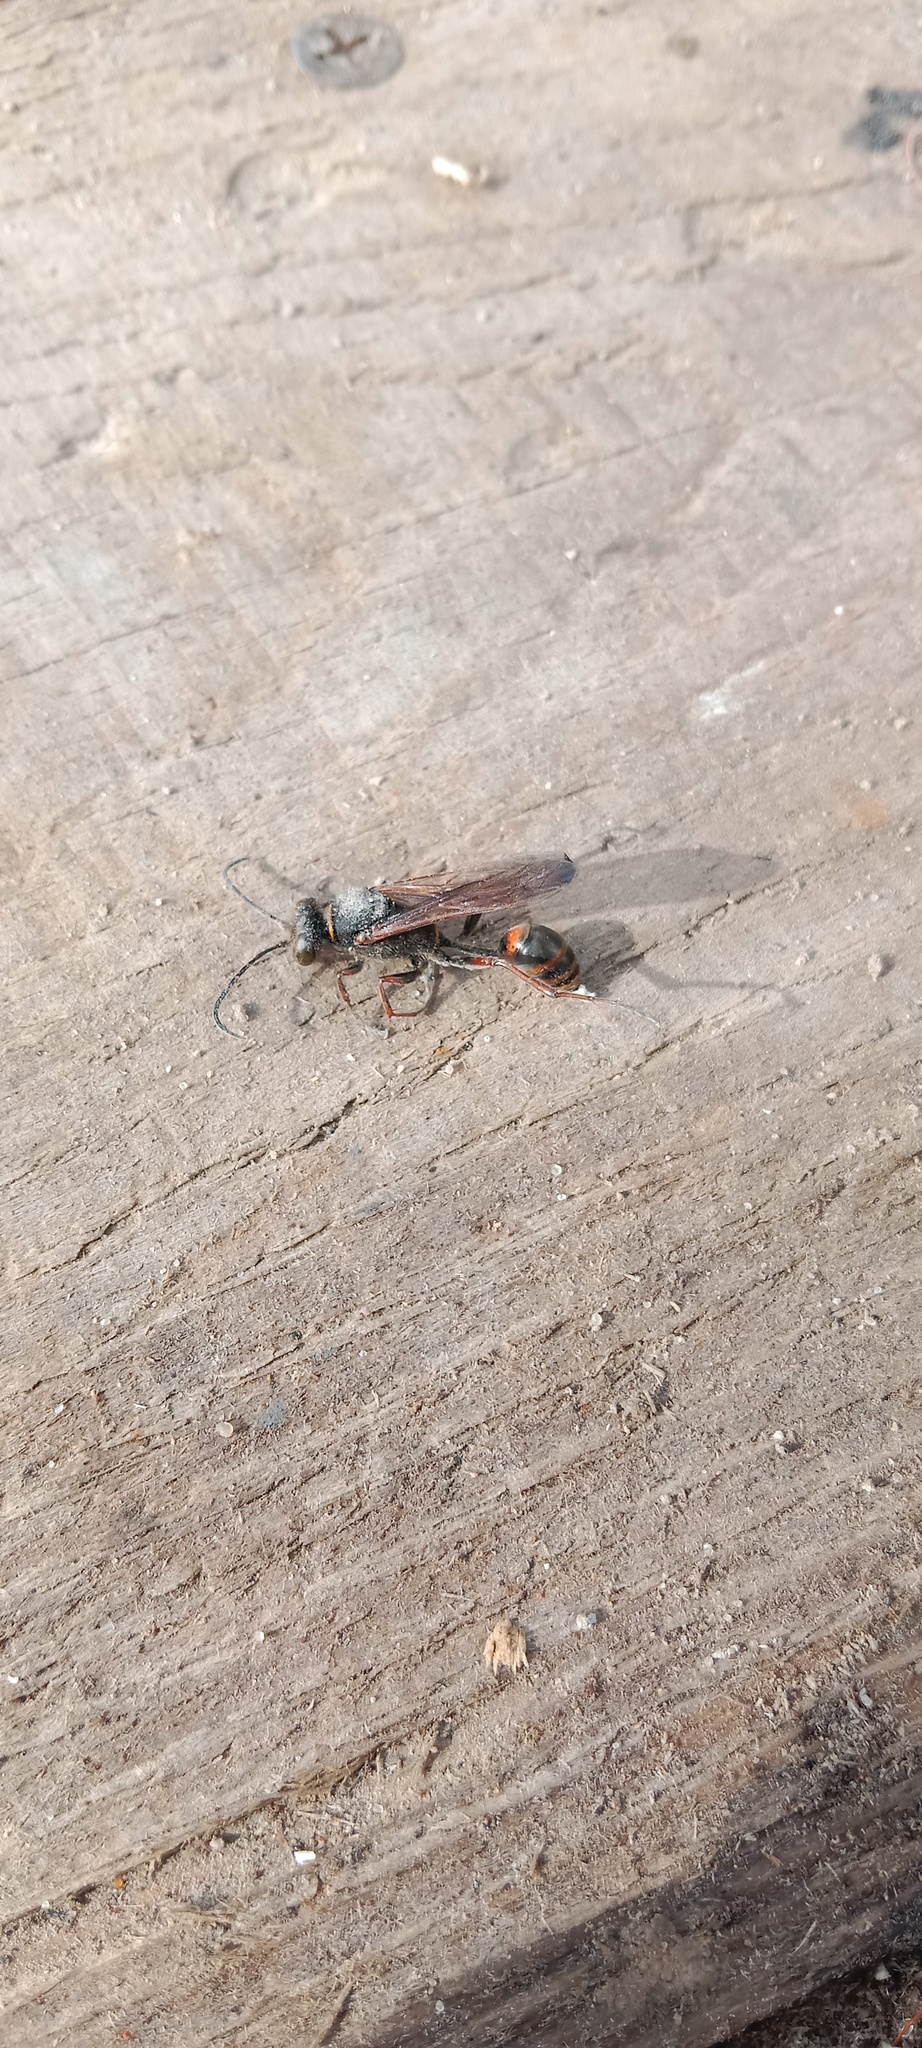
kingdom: Animalia
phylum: Arthropoda
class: Insecta
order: Hymenoptera
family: Sphecidae
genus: Sceliphron
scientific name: Sceliphron curvatum
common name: Pèlopèe
